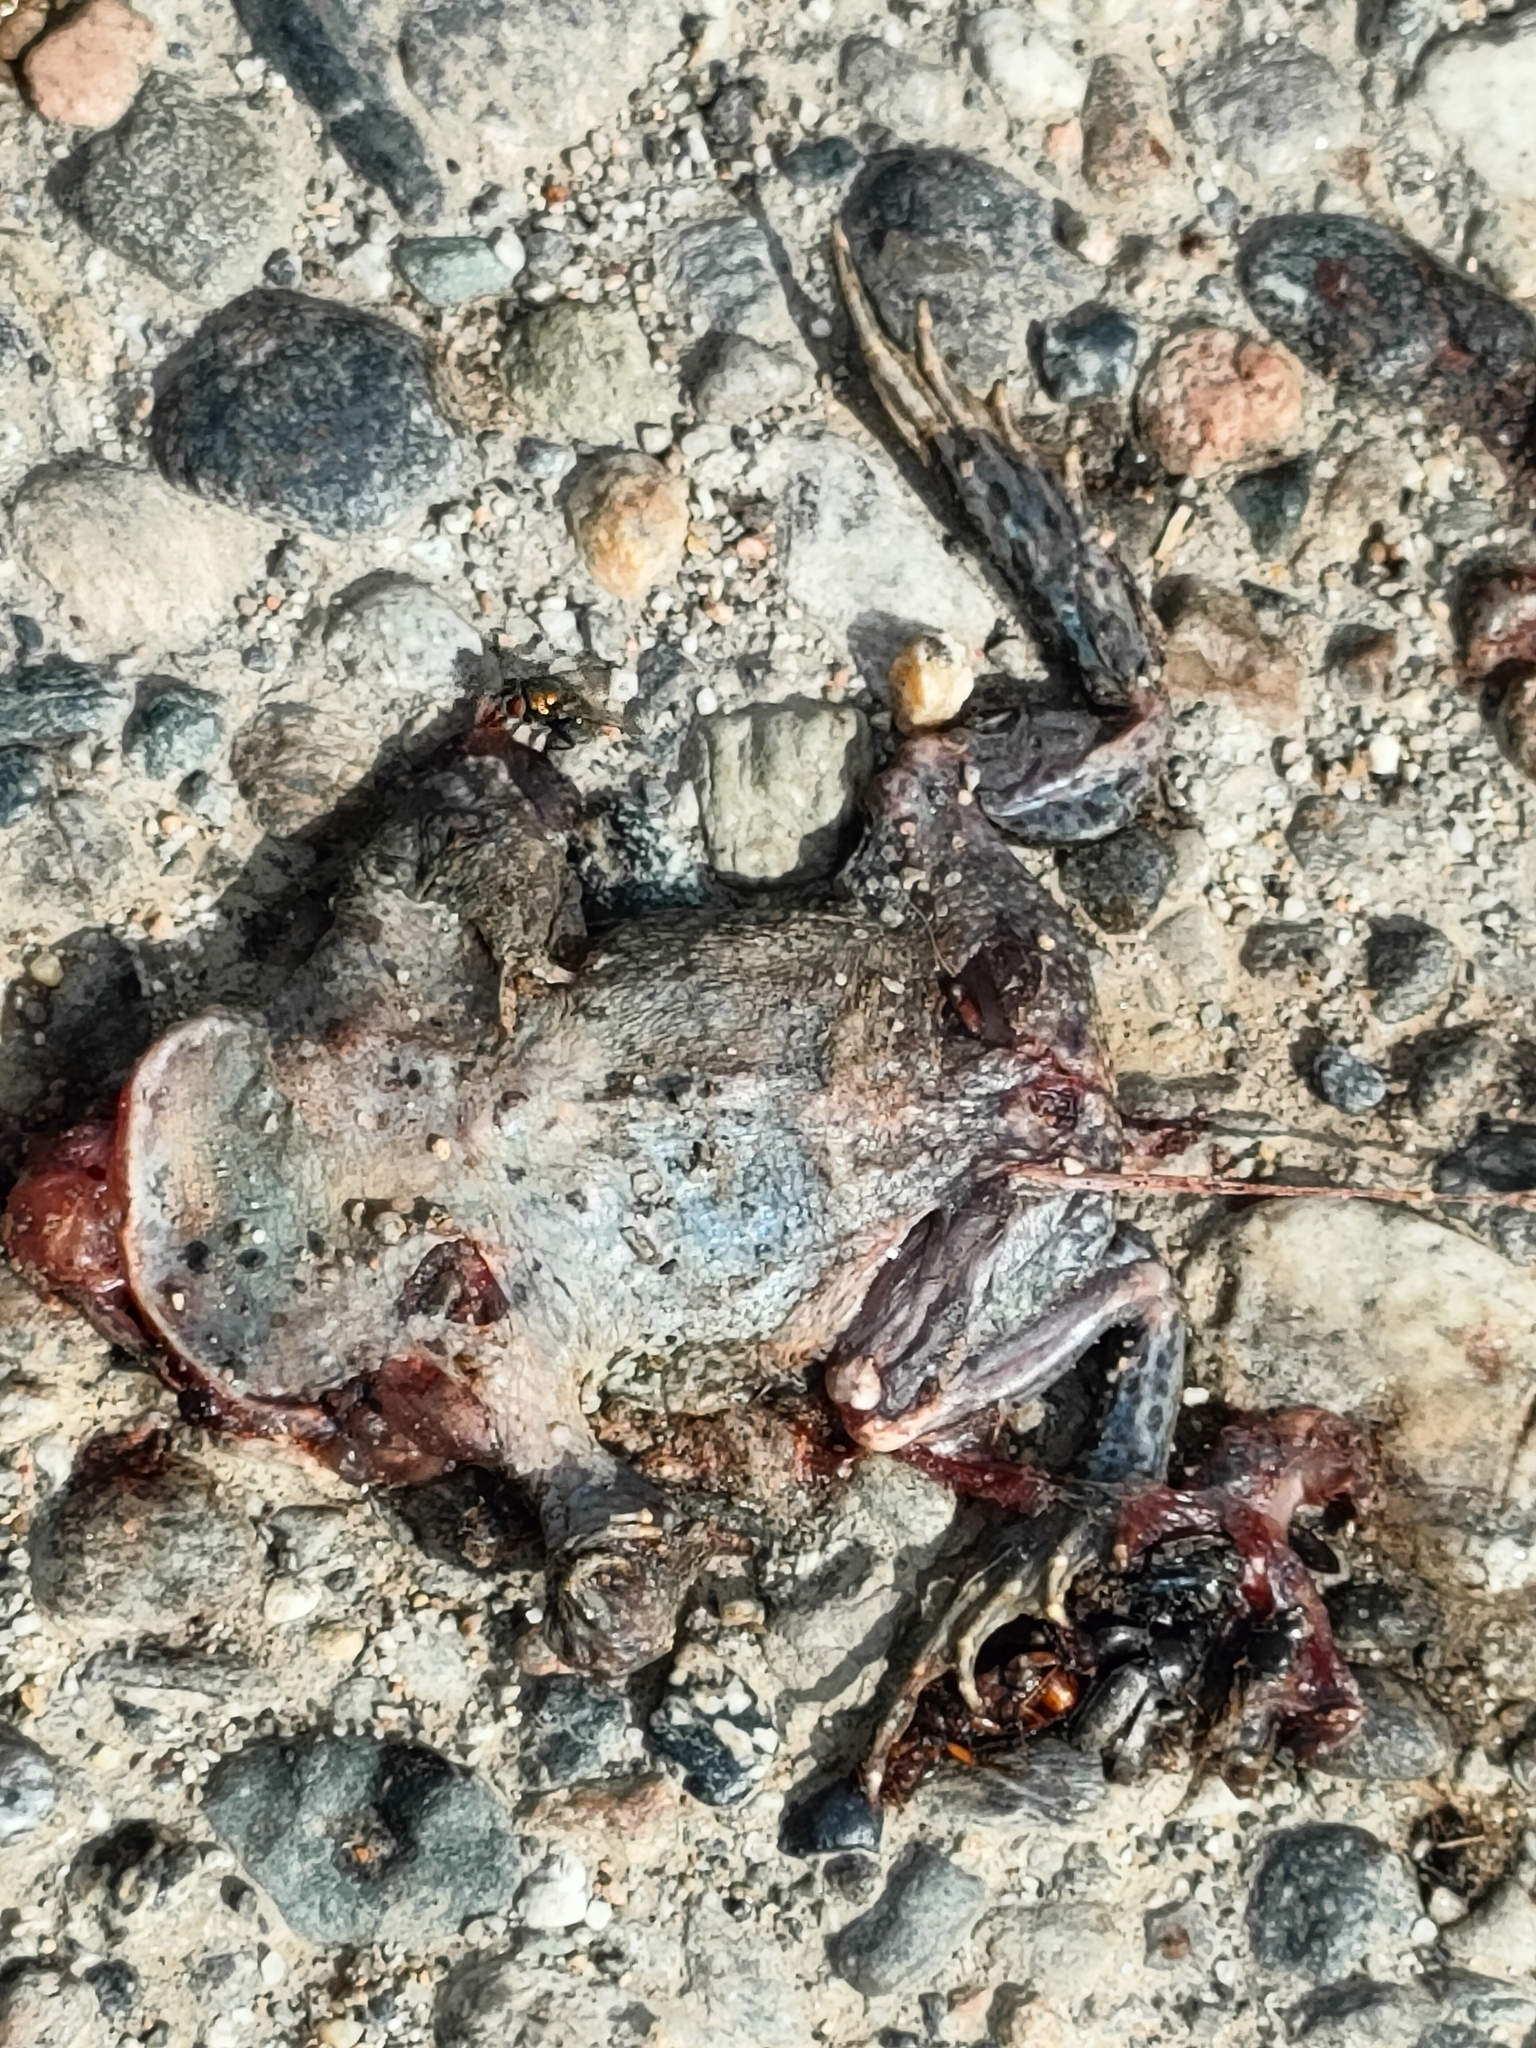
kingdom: Animalia
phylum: Chordata
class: Amphibia
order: Anura
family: Bufonidae
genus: Bufotes
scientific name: Bufotes viridis
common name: European green toad
